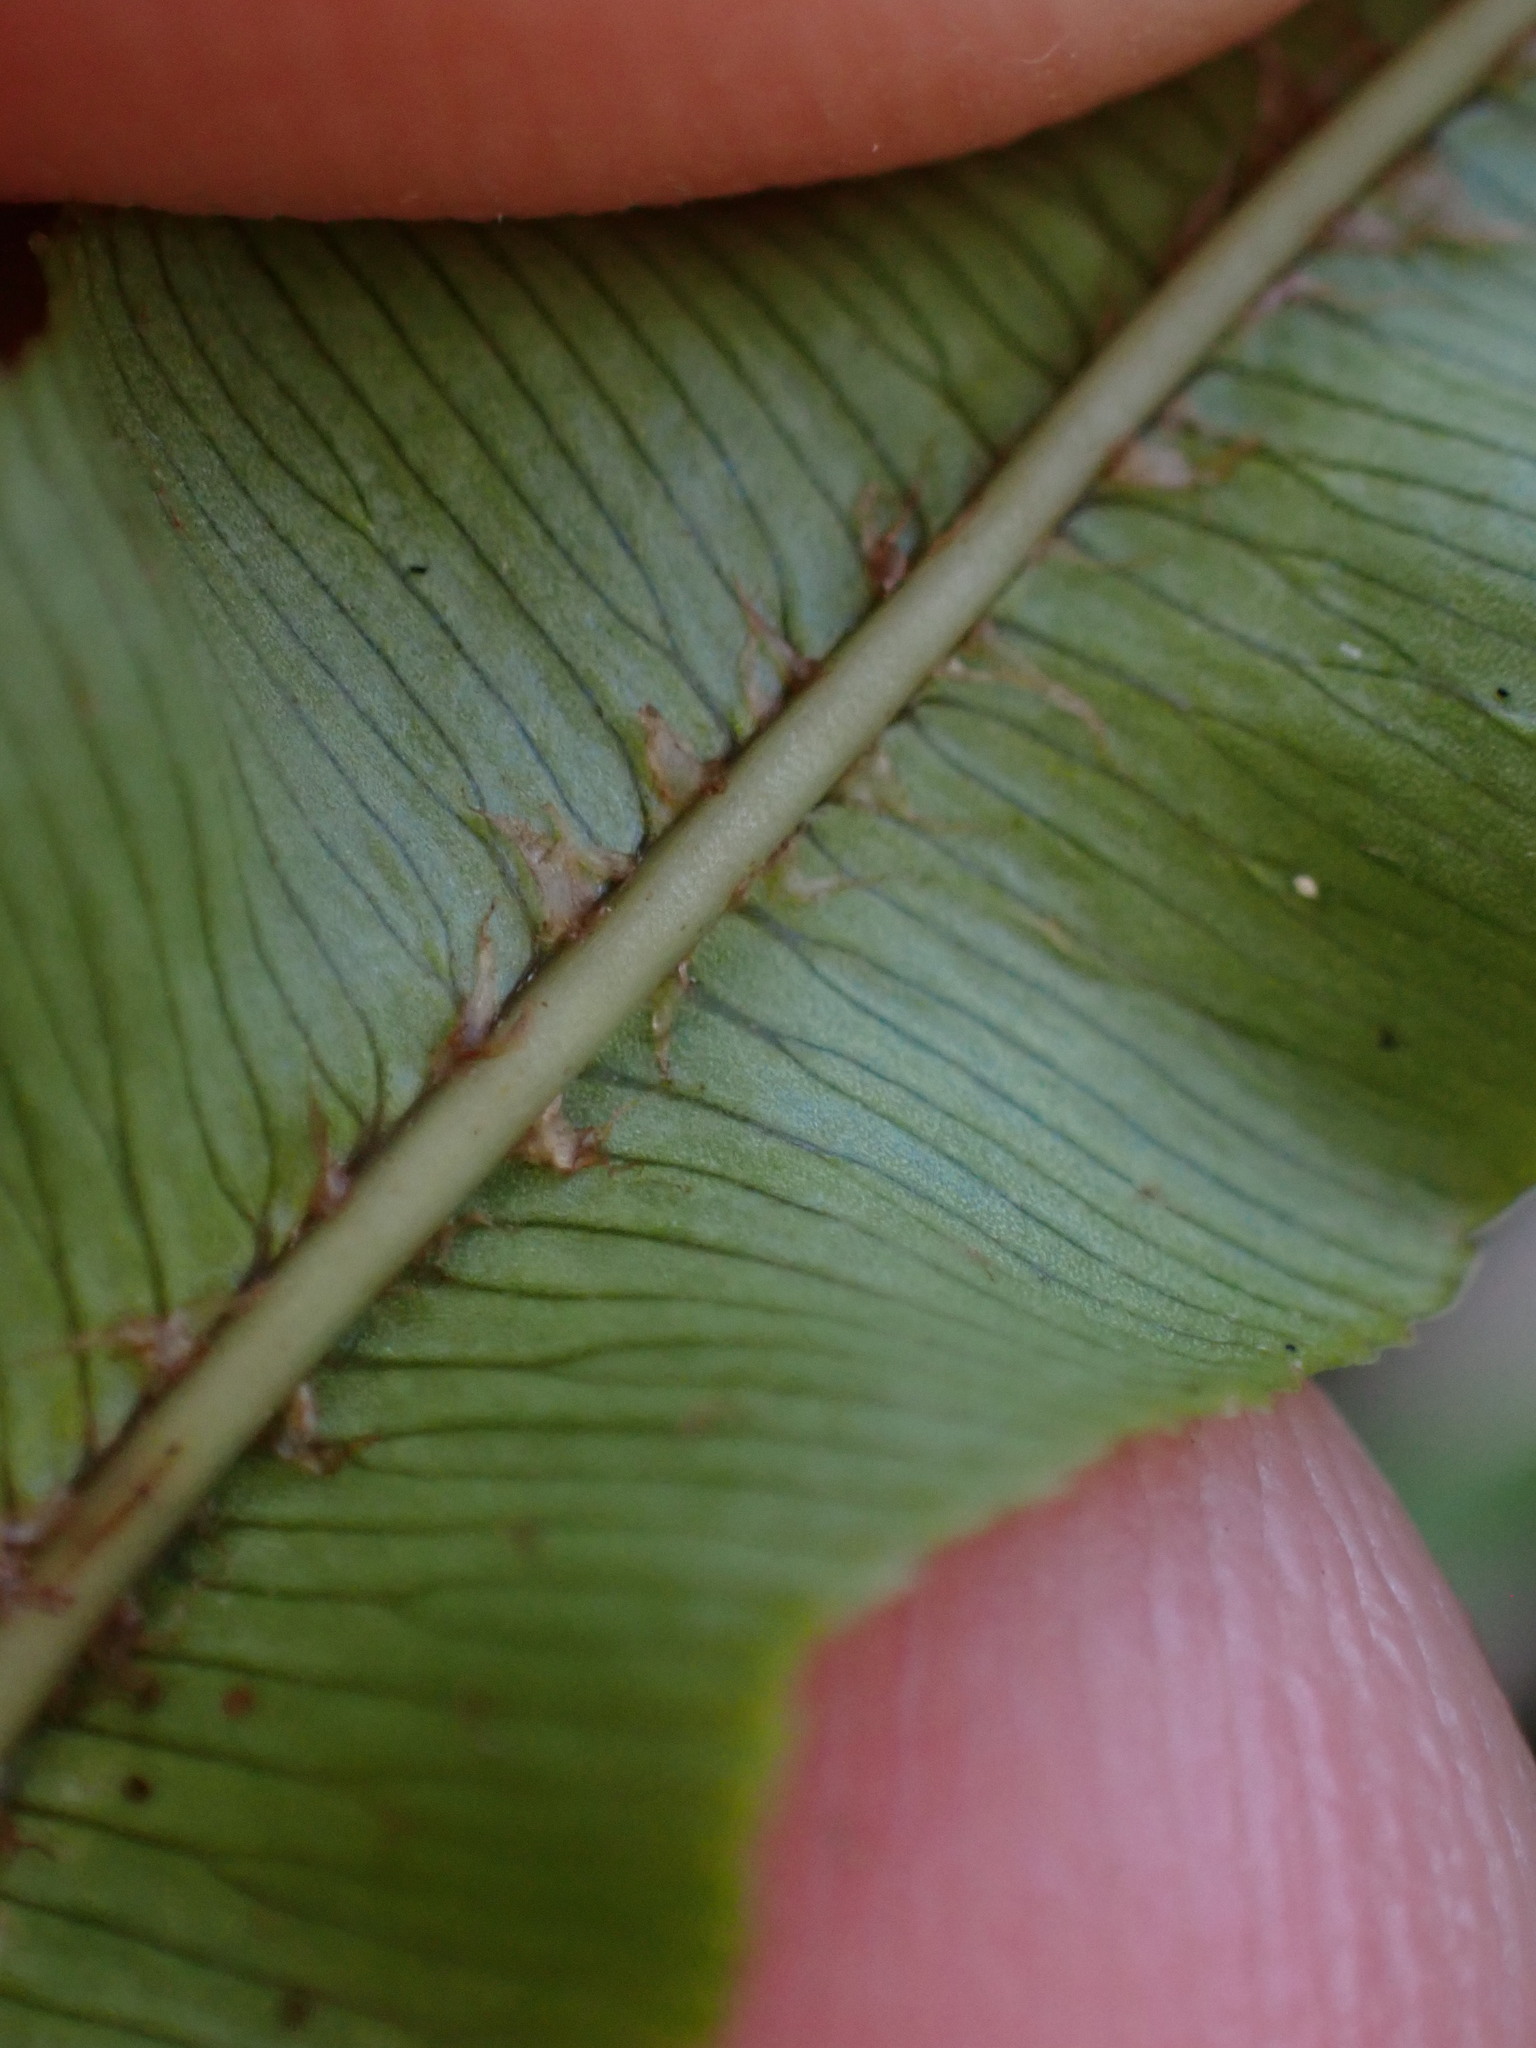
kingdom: Plantae
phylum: Tracheophyta
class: Polypodiopsida
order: Polypodiales
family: Blechnaceae
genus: Parablechnum
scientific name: Parablechnum minus
